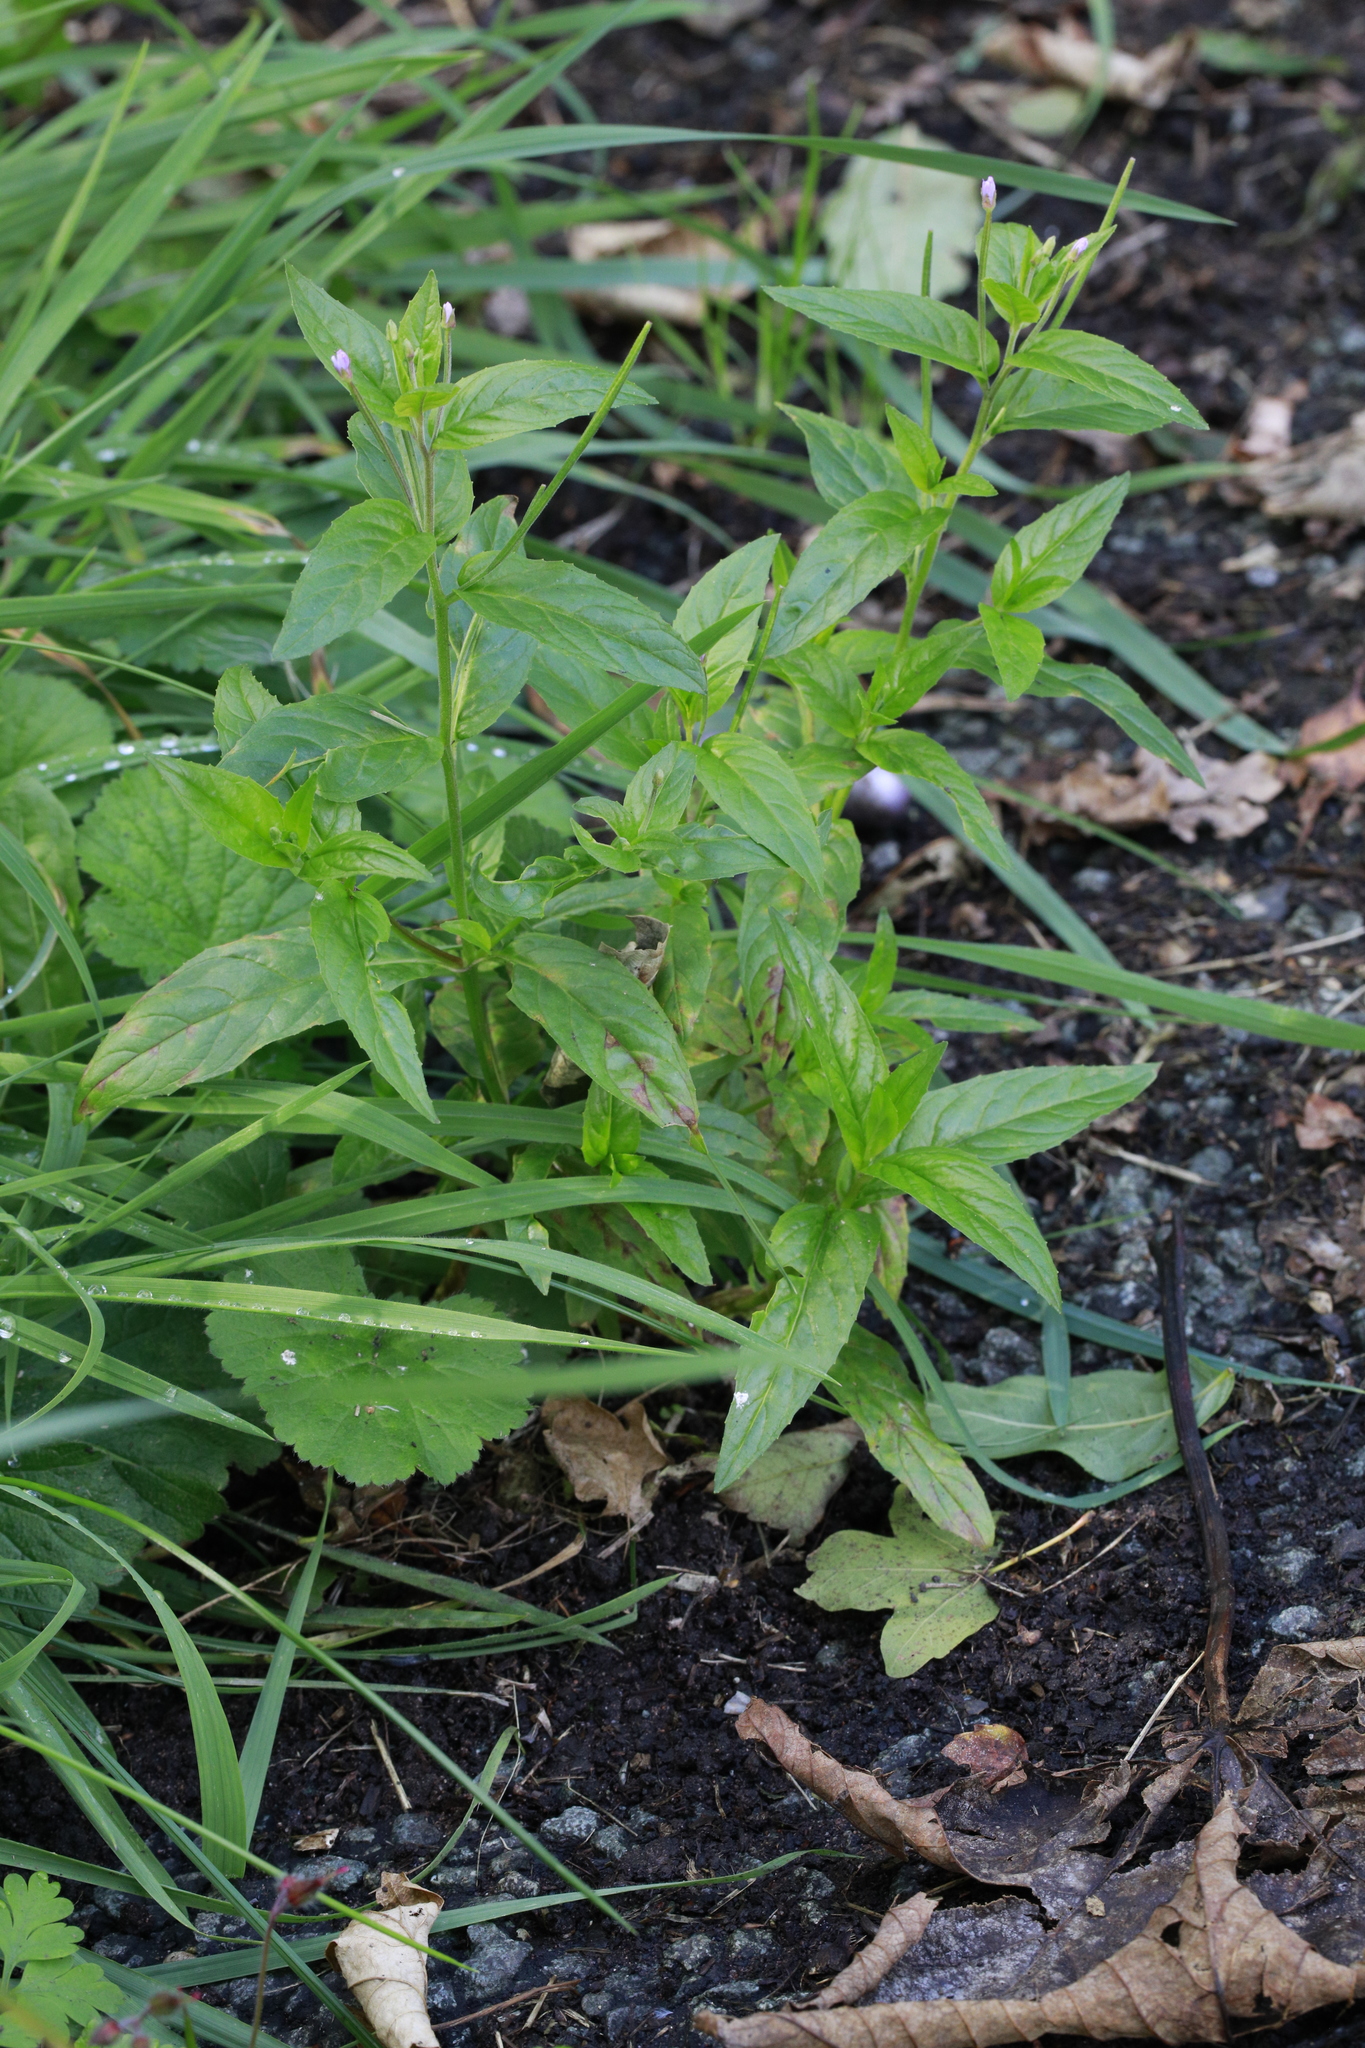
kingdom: Plantae
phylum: Tracheophyta
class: Magnoliopsida
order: Myrtales
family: Onagraceae
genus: Epilobium
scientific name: Epilobium montanum
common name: Broad-leaved willowherb
